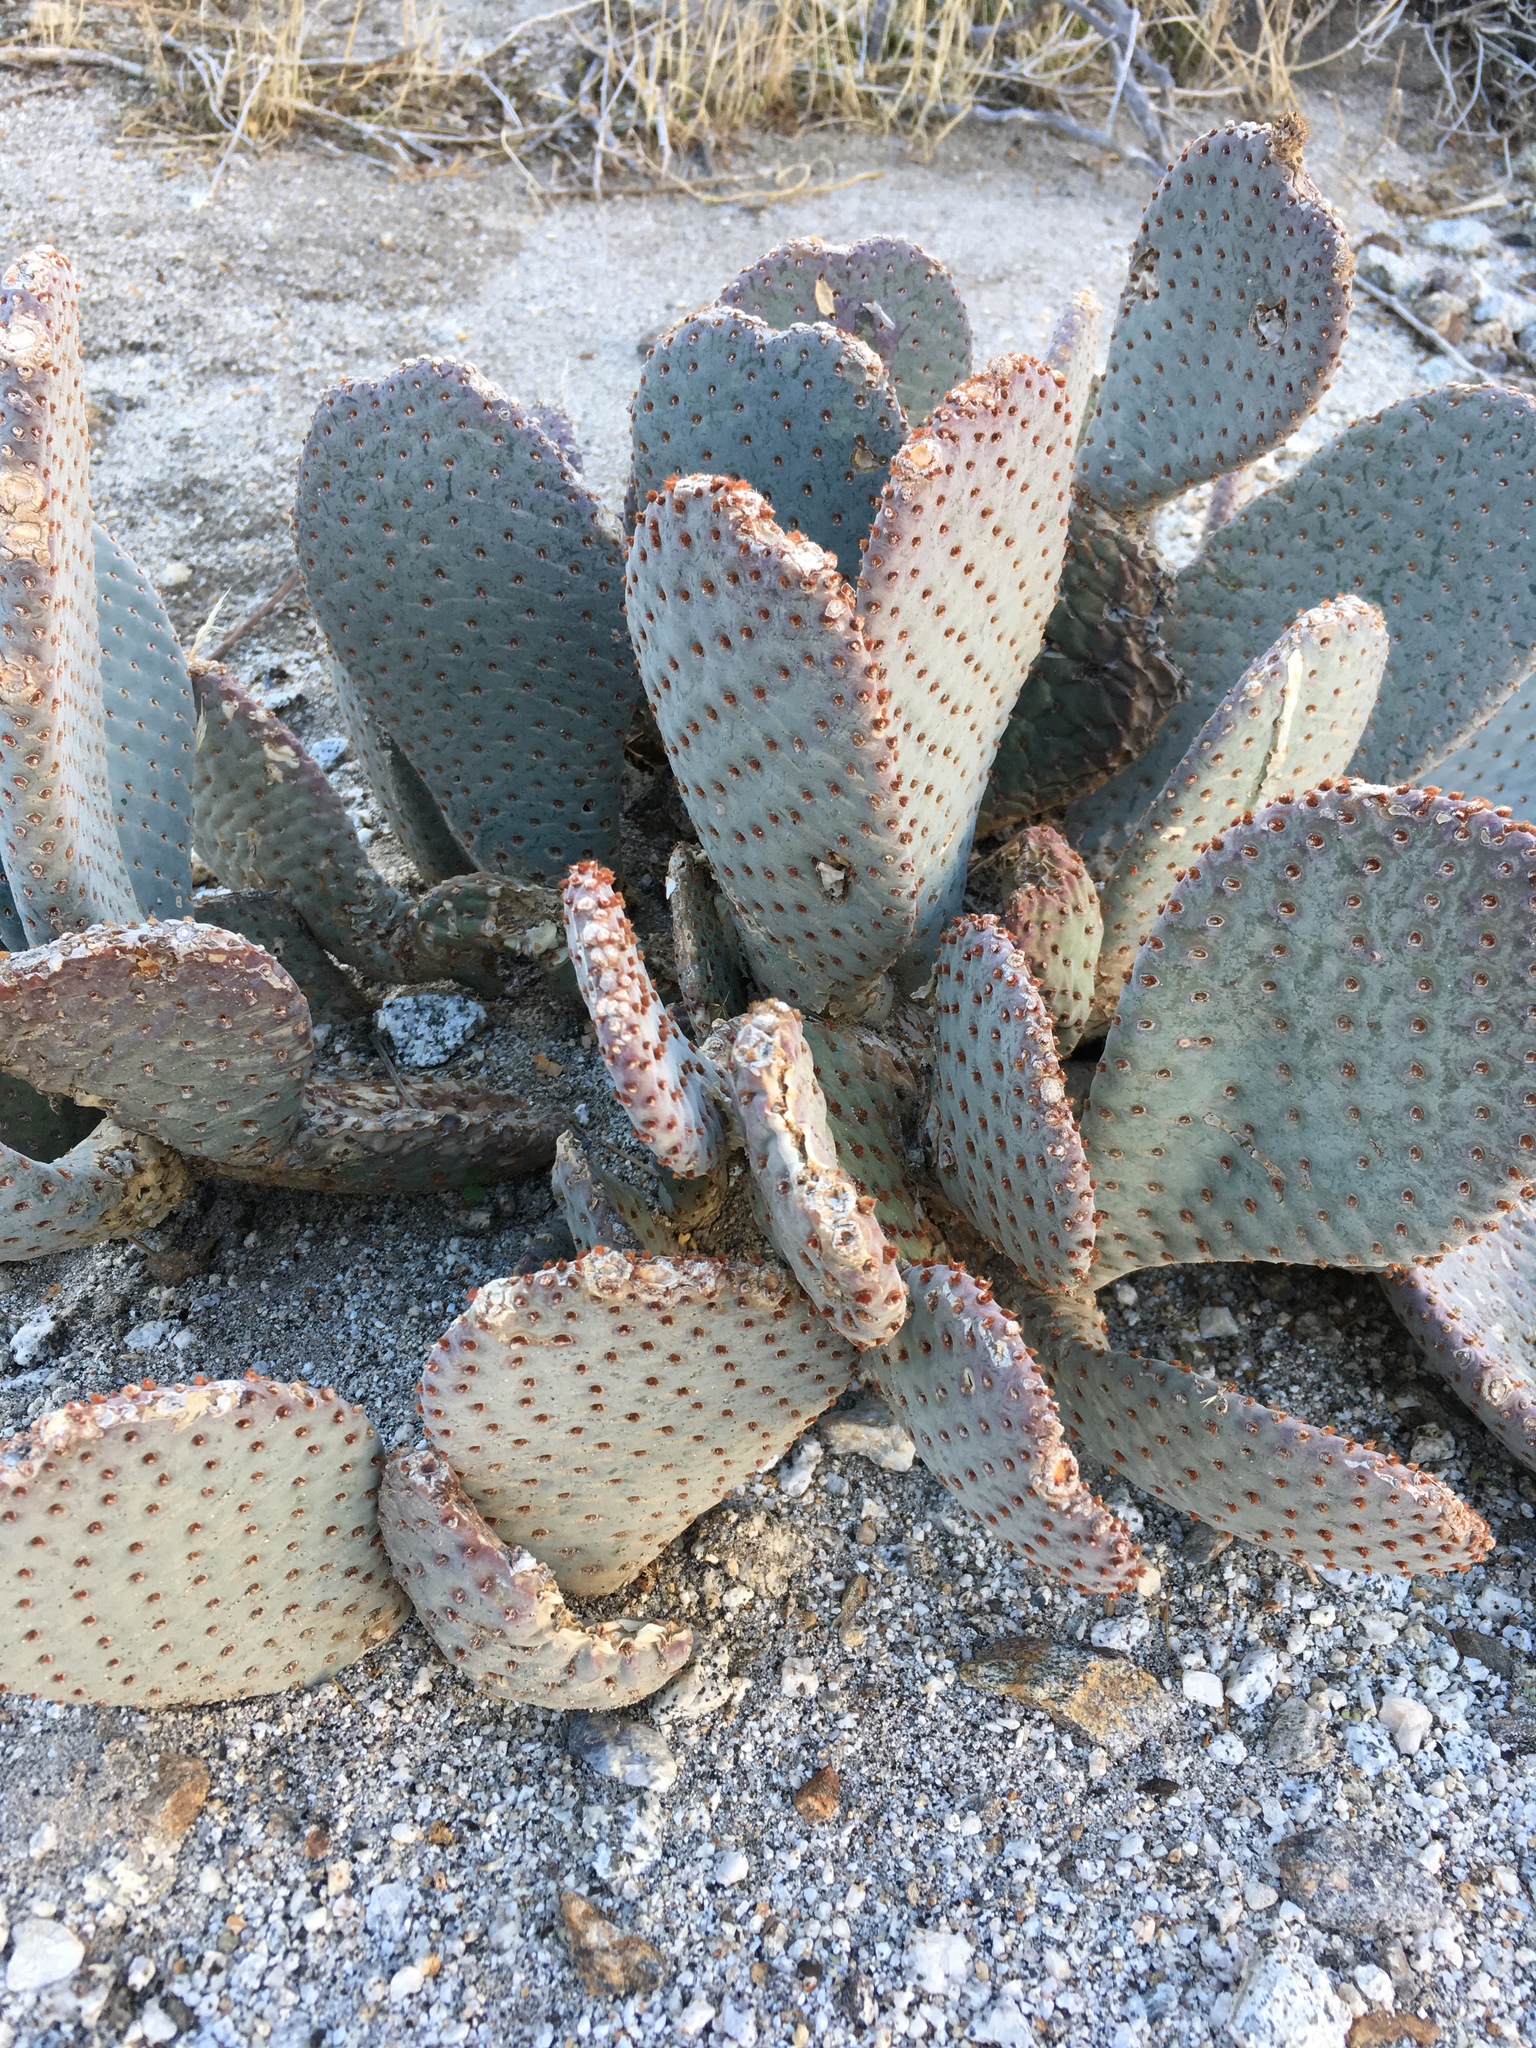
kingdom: Plantae
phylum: Tracheophyta
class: Magnoliopsida
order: Caryophyllales
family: Cactaceae
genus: Opuntia
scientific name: Opuntia basilaris
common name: Beavertail prickly-pear
